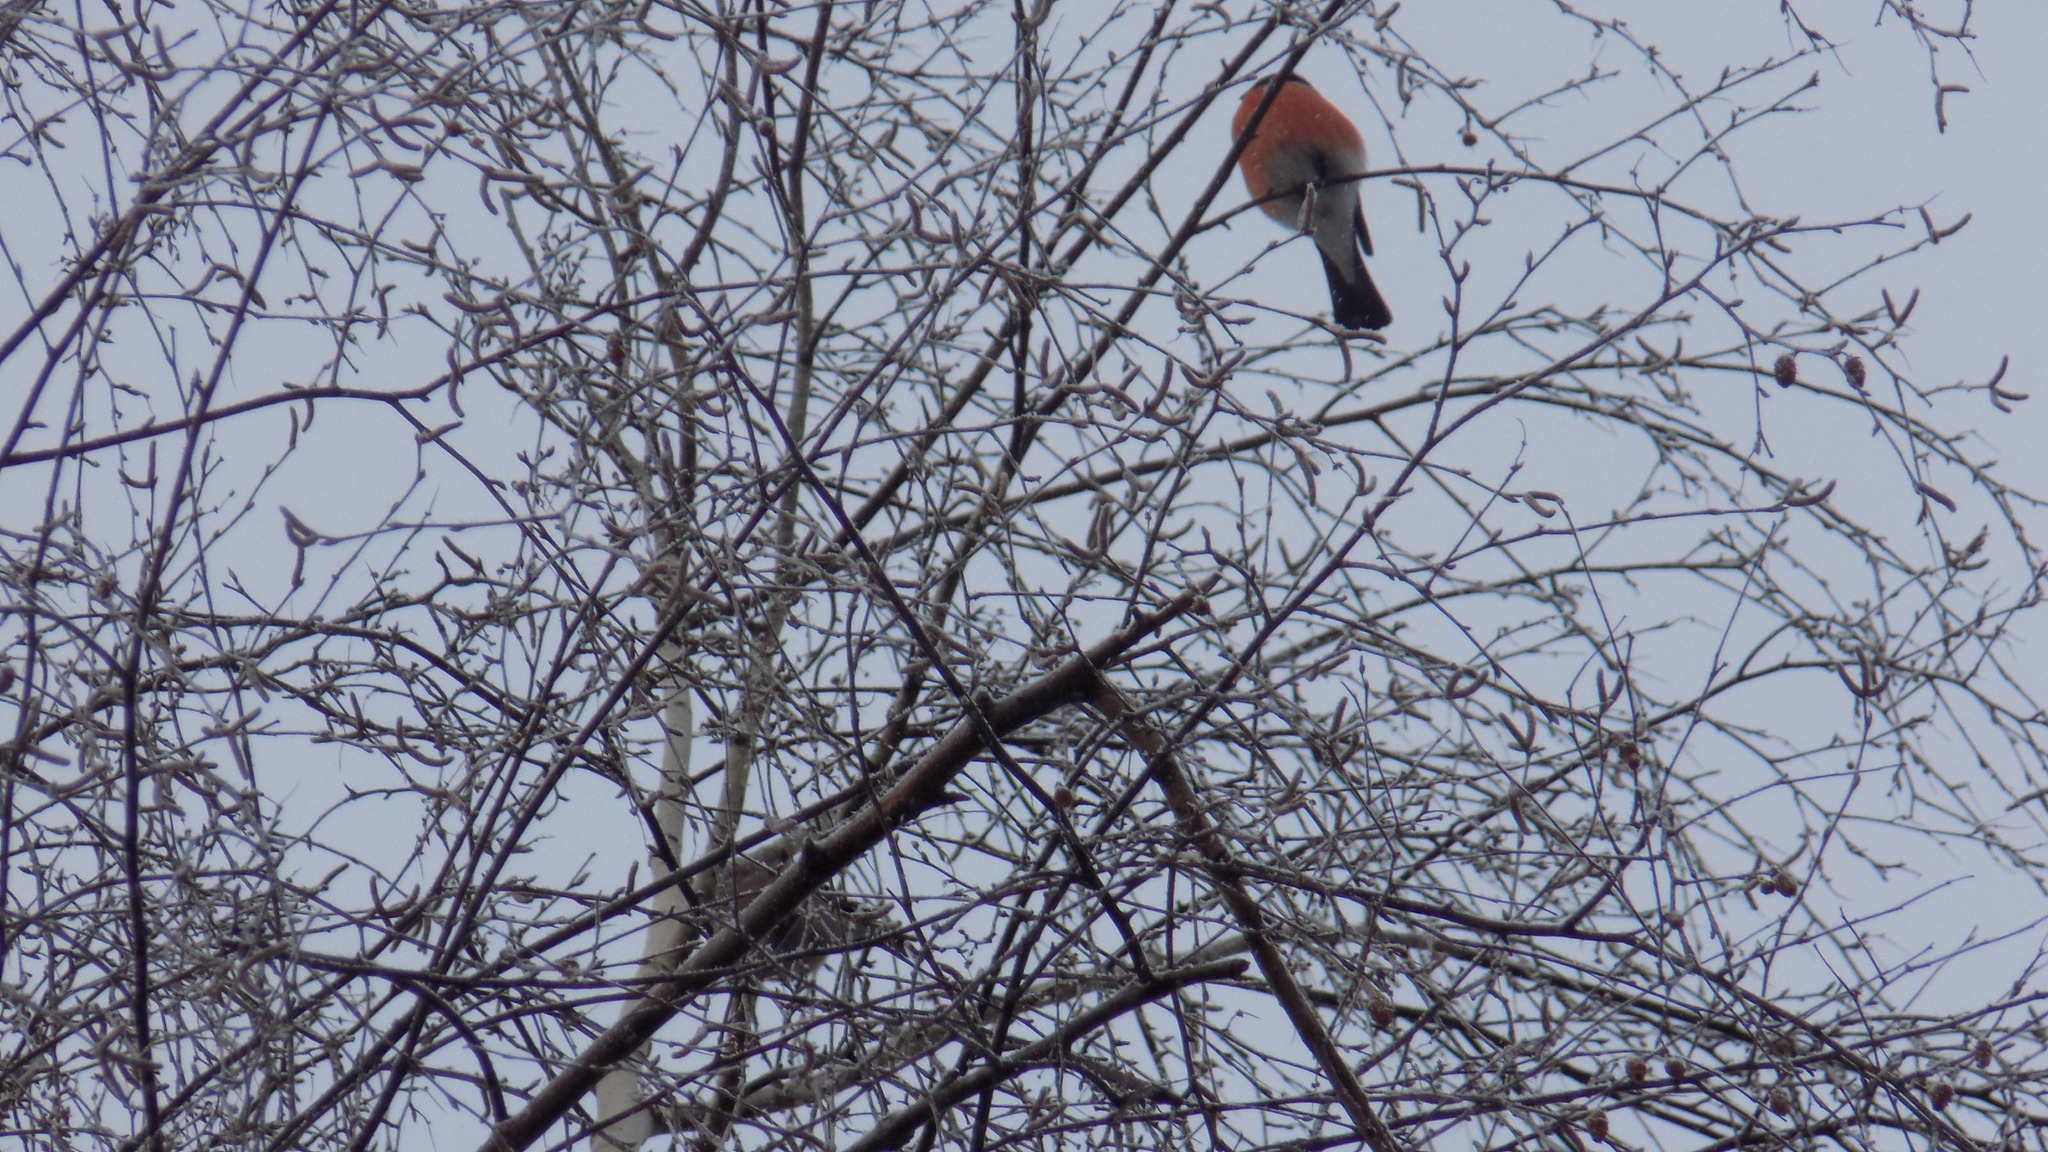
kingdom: Animalia
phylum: Chordata
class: Aves
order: Passeriformes
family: Fringillidae
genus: Pyrrhula
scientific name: Pyrrhula pyrrhula
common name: Eurasian bullfinch
